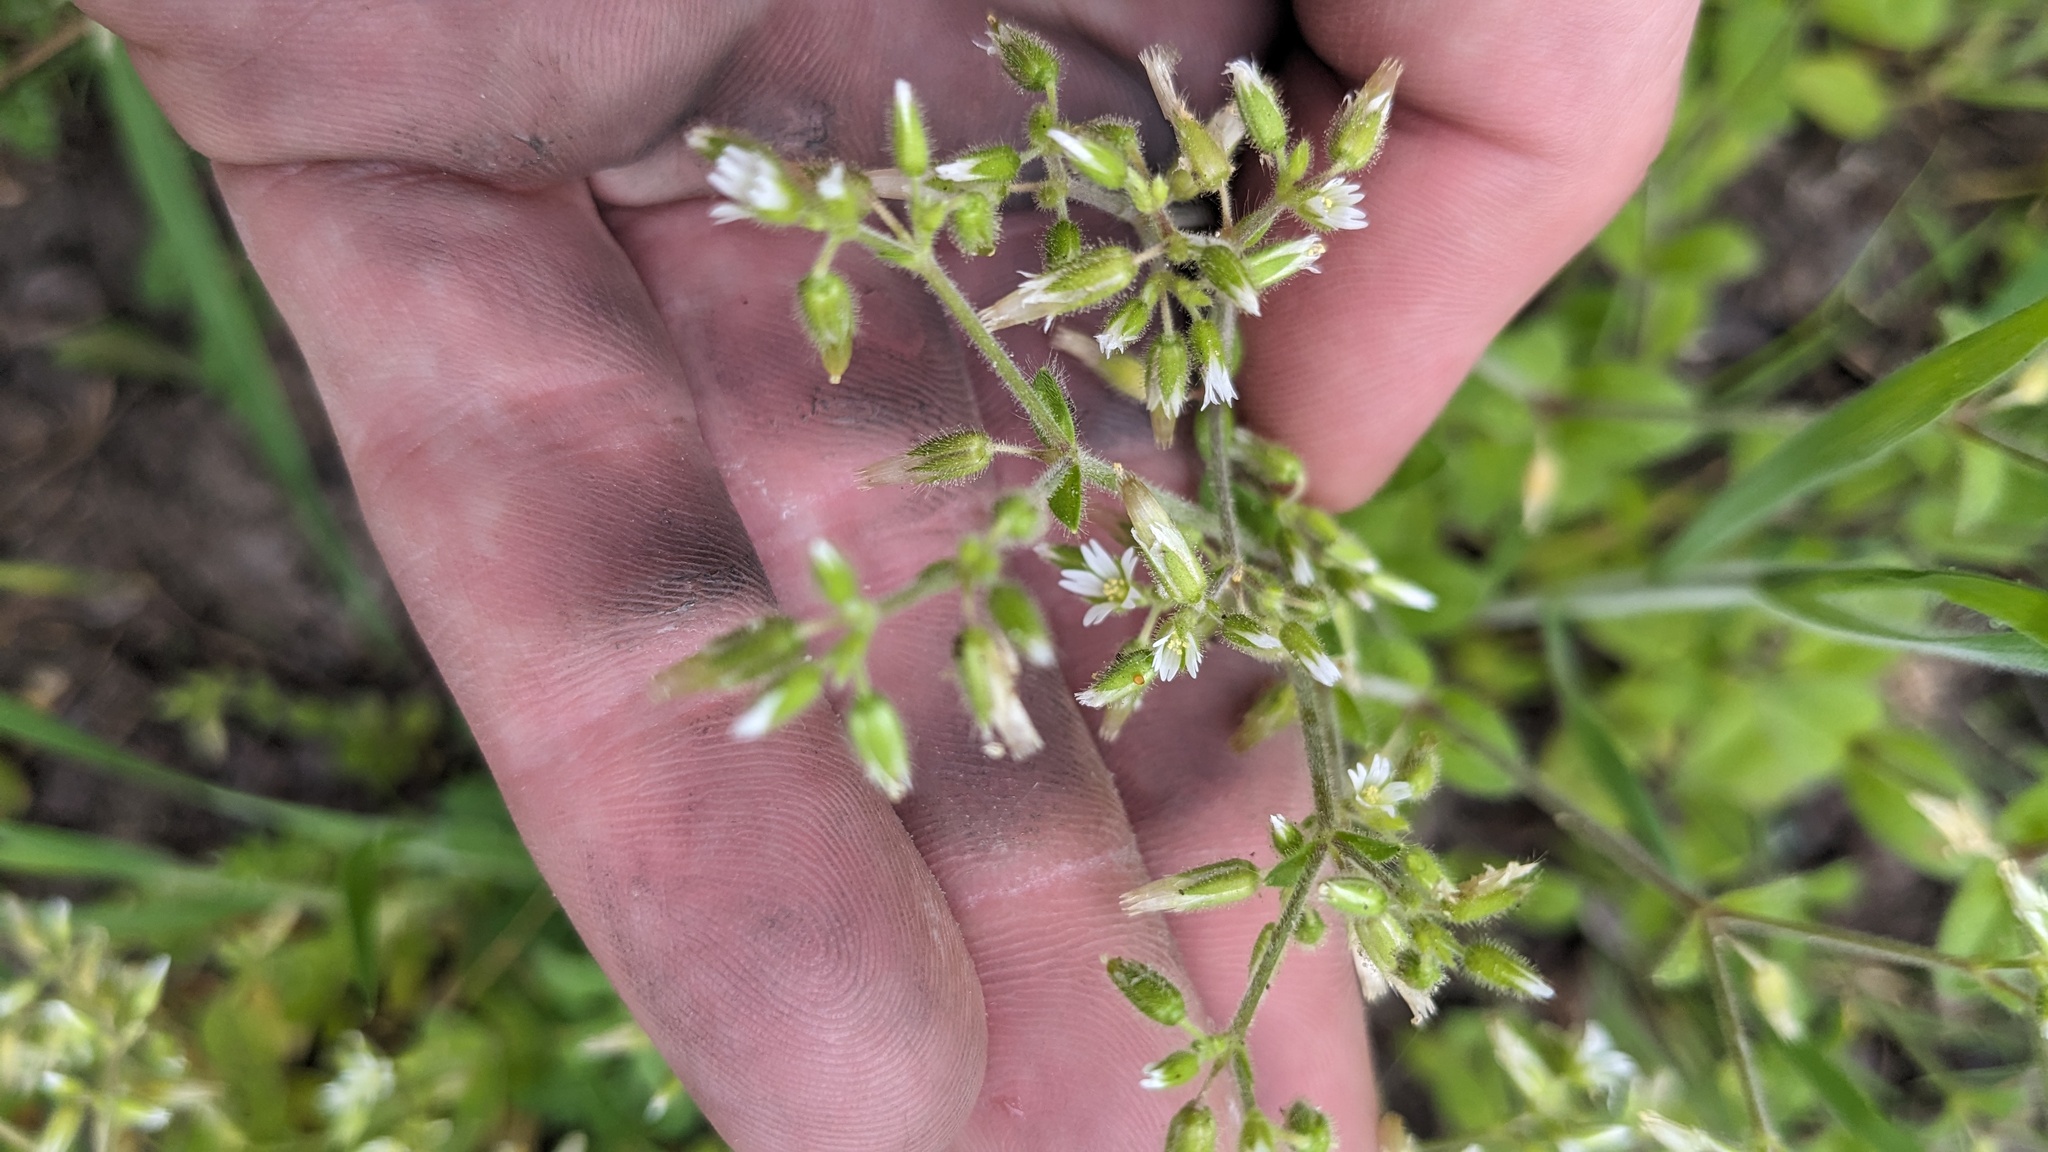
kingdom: Plantae
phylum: Tracheophyta
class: Magnoliopsida
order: Caryophyllales
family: Caryophyllaceae
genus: Cerastium
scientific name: Cerastium glomeratum
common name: Sticky chickweed
